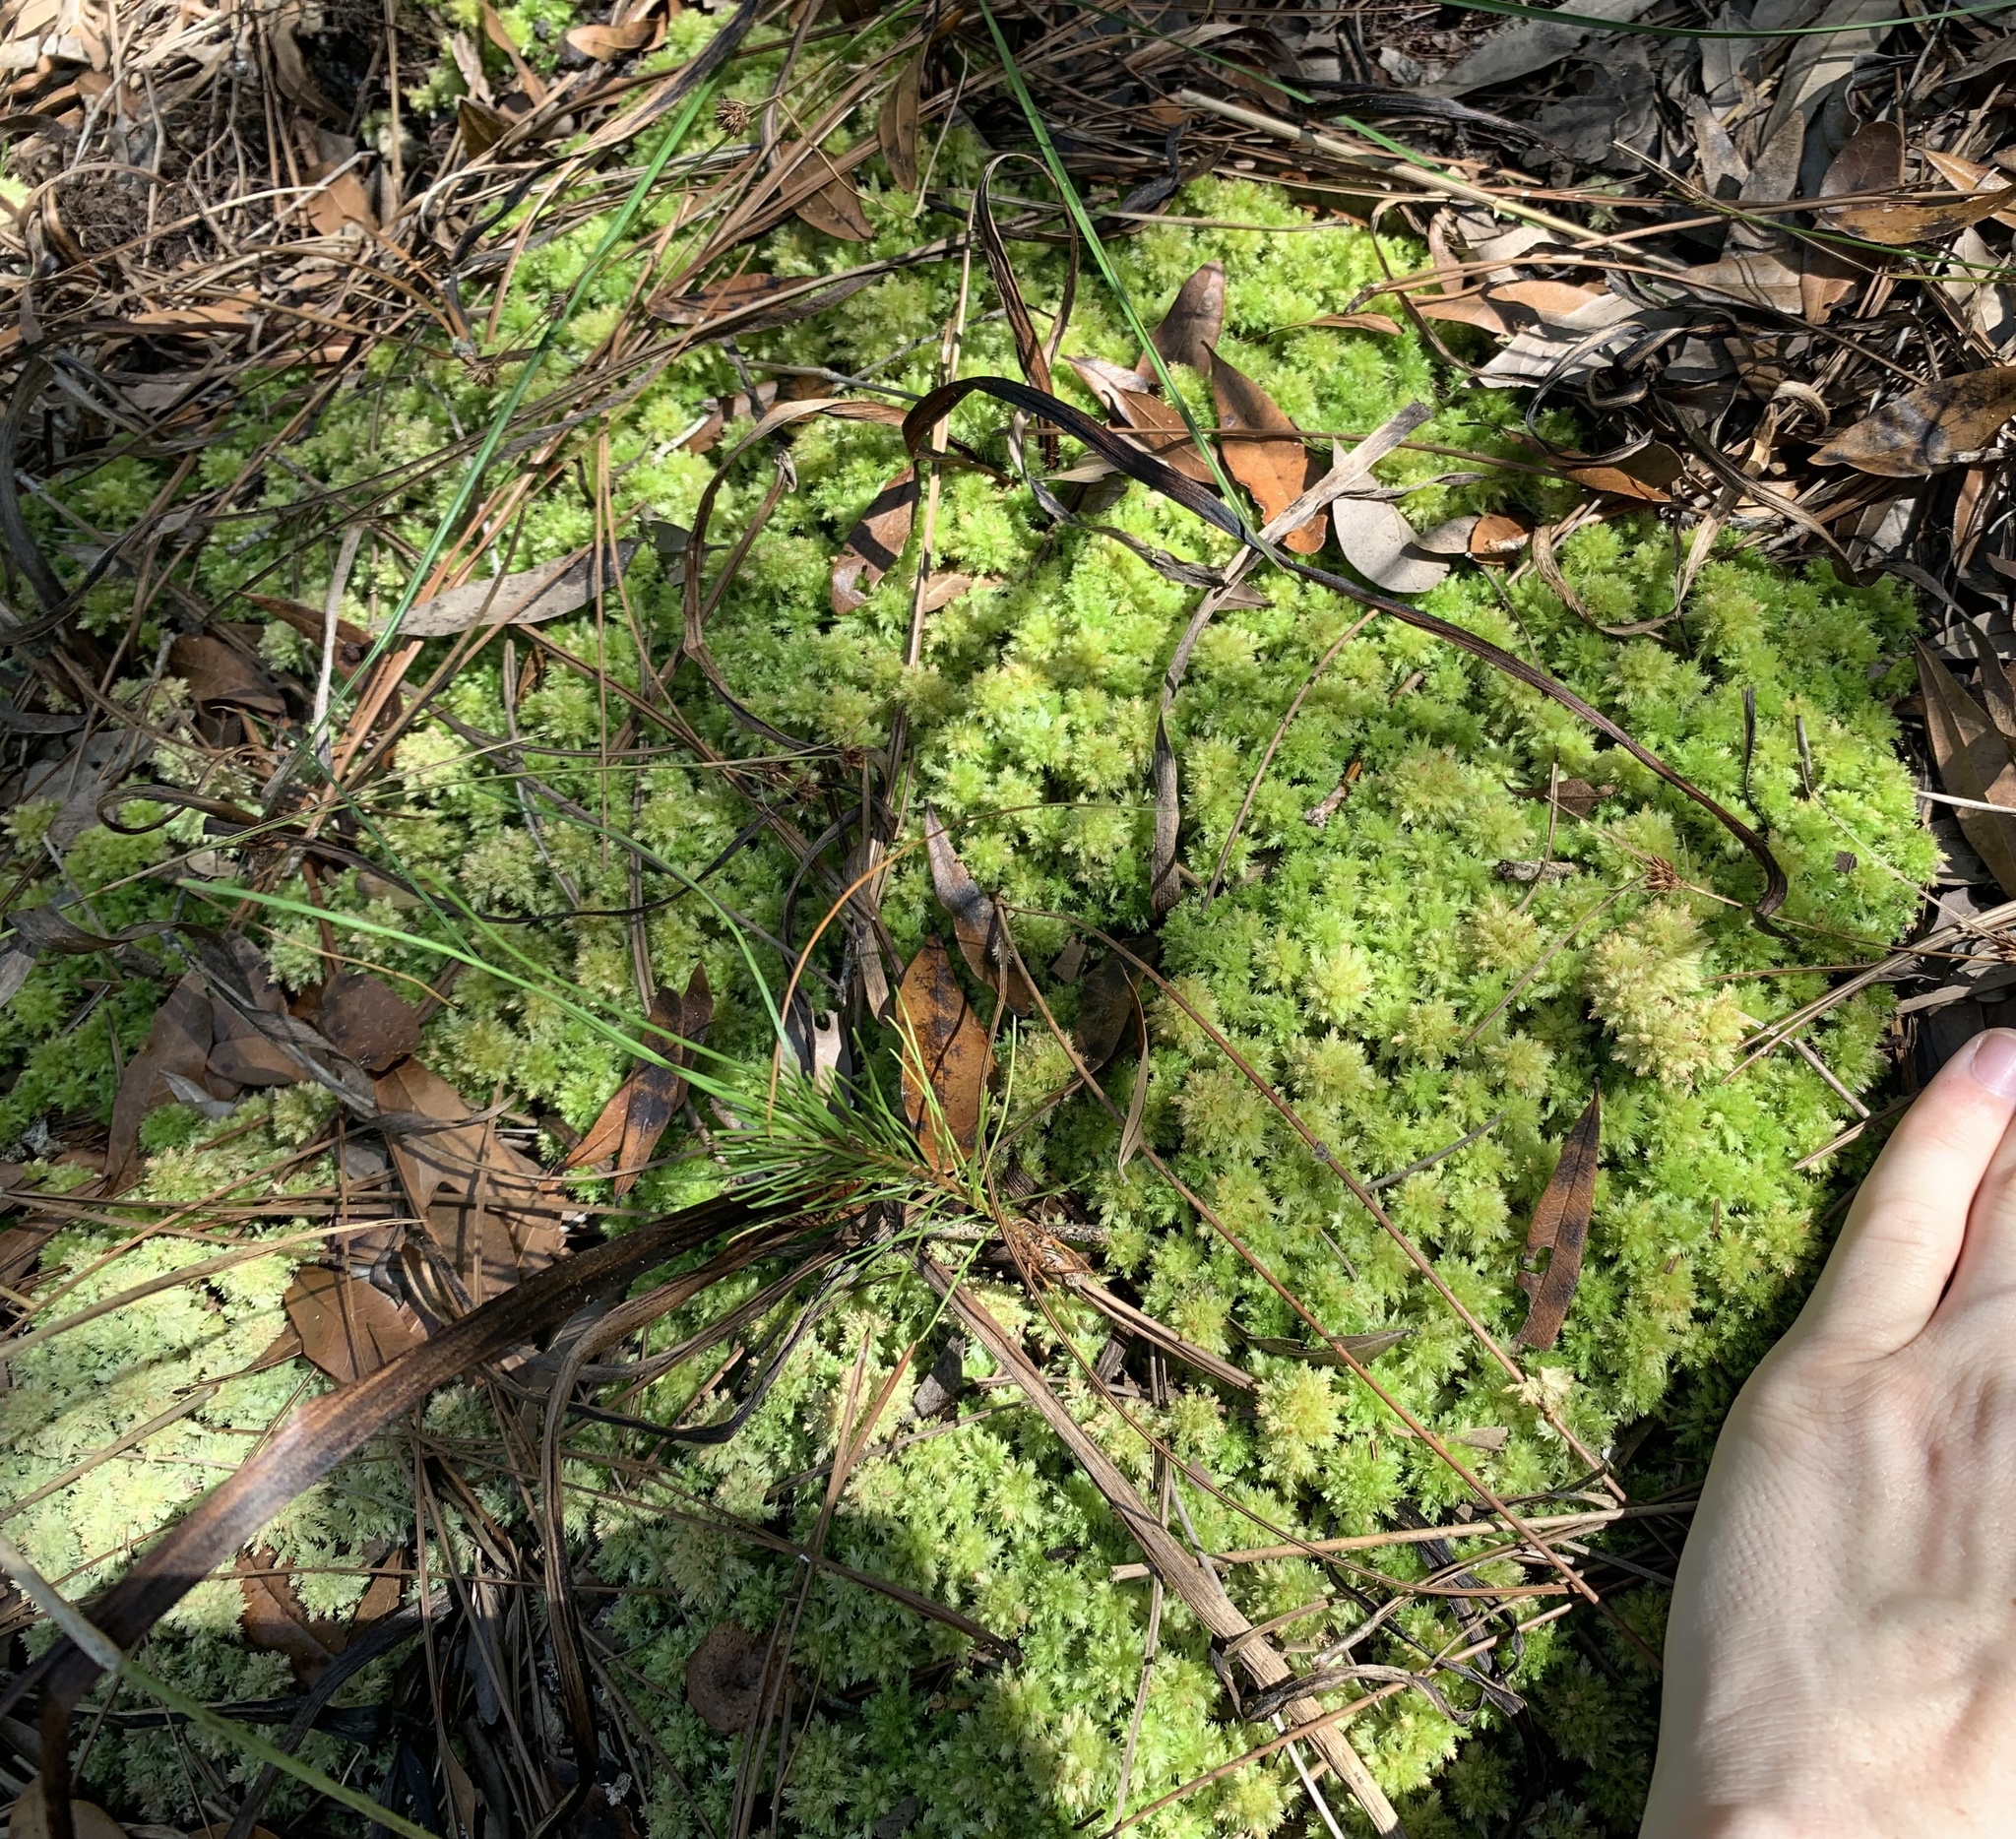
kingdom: Plantae
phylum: Bryophyta
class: Sphagnopsida
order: Sphagnales
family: Sphagnaceae
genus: Sphagnum
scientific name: Sphagnum perichaetiale
